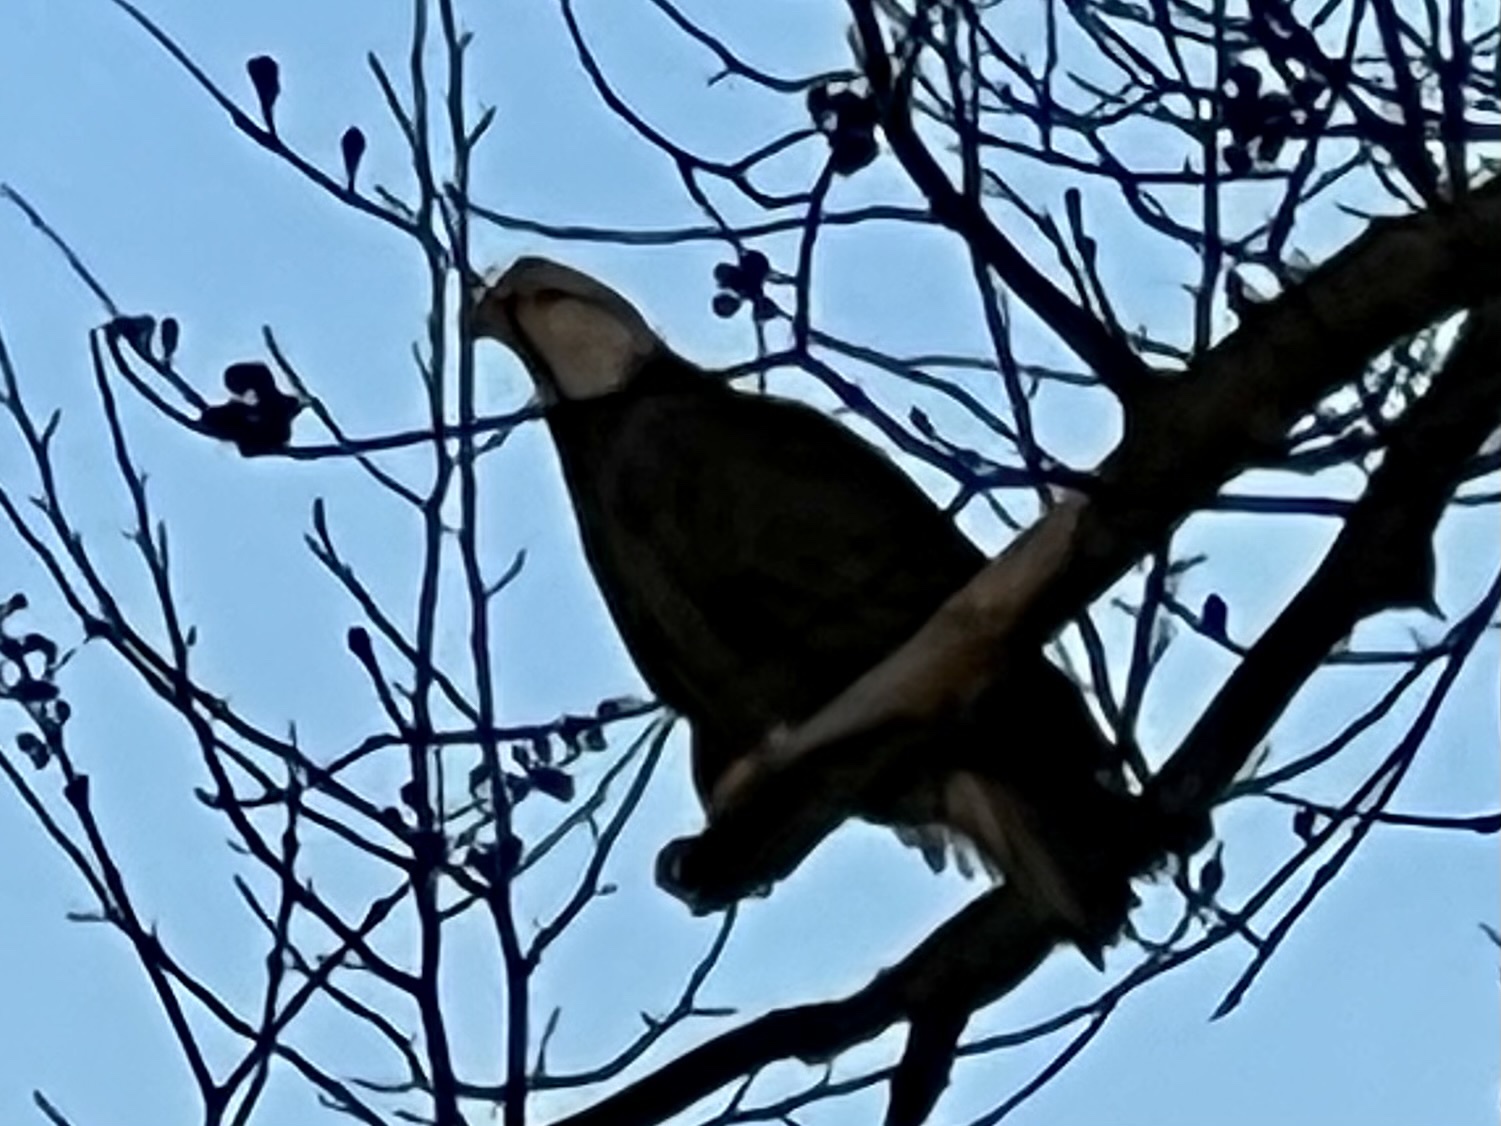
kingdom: Animalia
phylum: Chordata
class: Aves
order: Accipitriformes
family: Accipitridae
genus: Haliaeetus
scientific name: Haliaeetus leucocephalus
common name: Bald eagle
